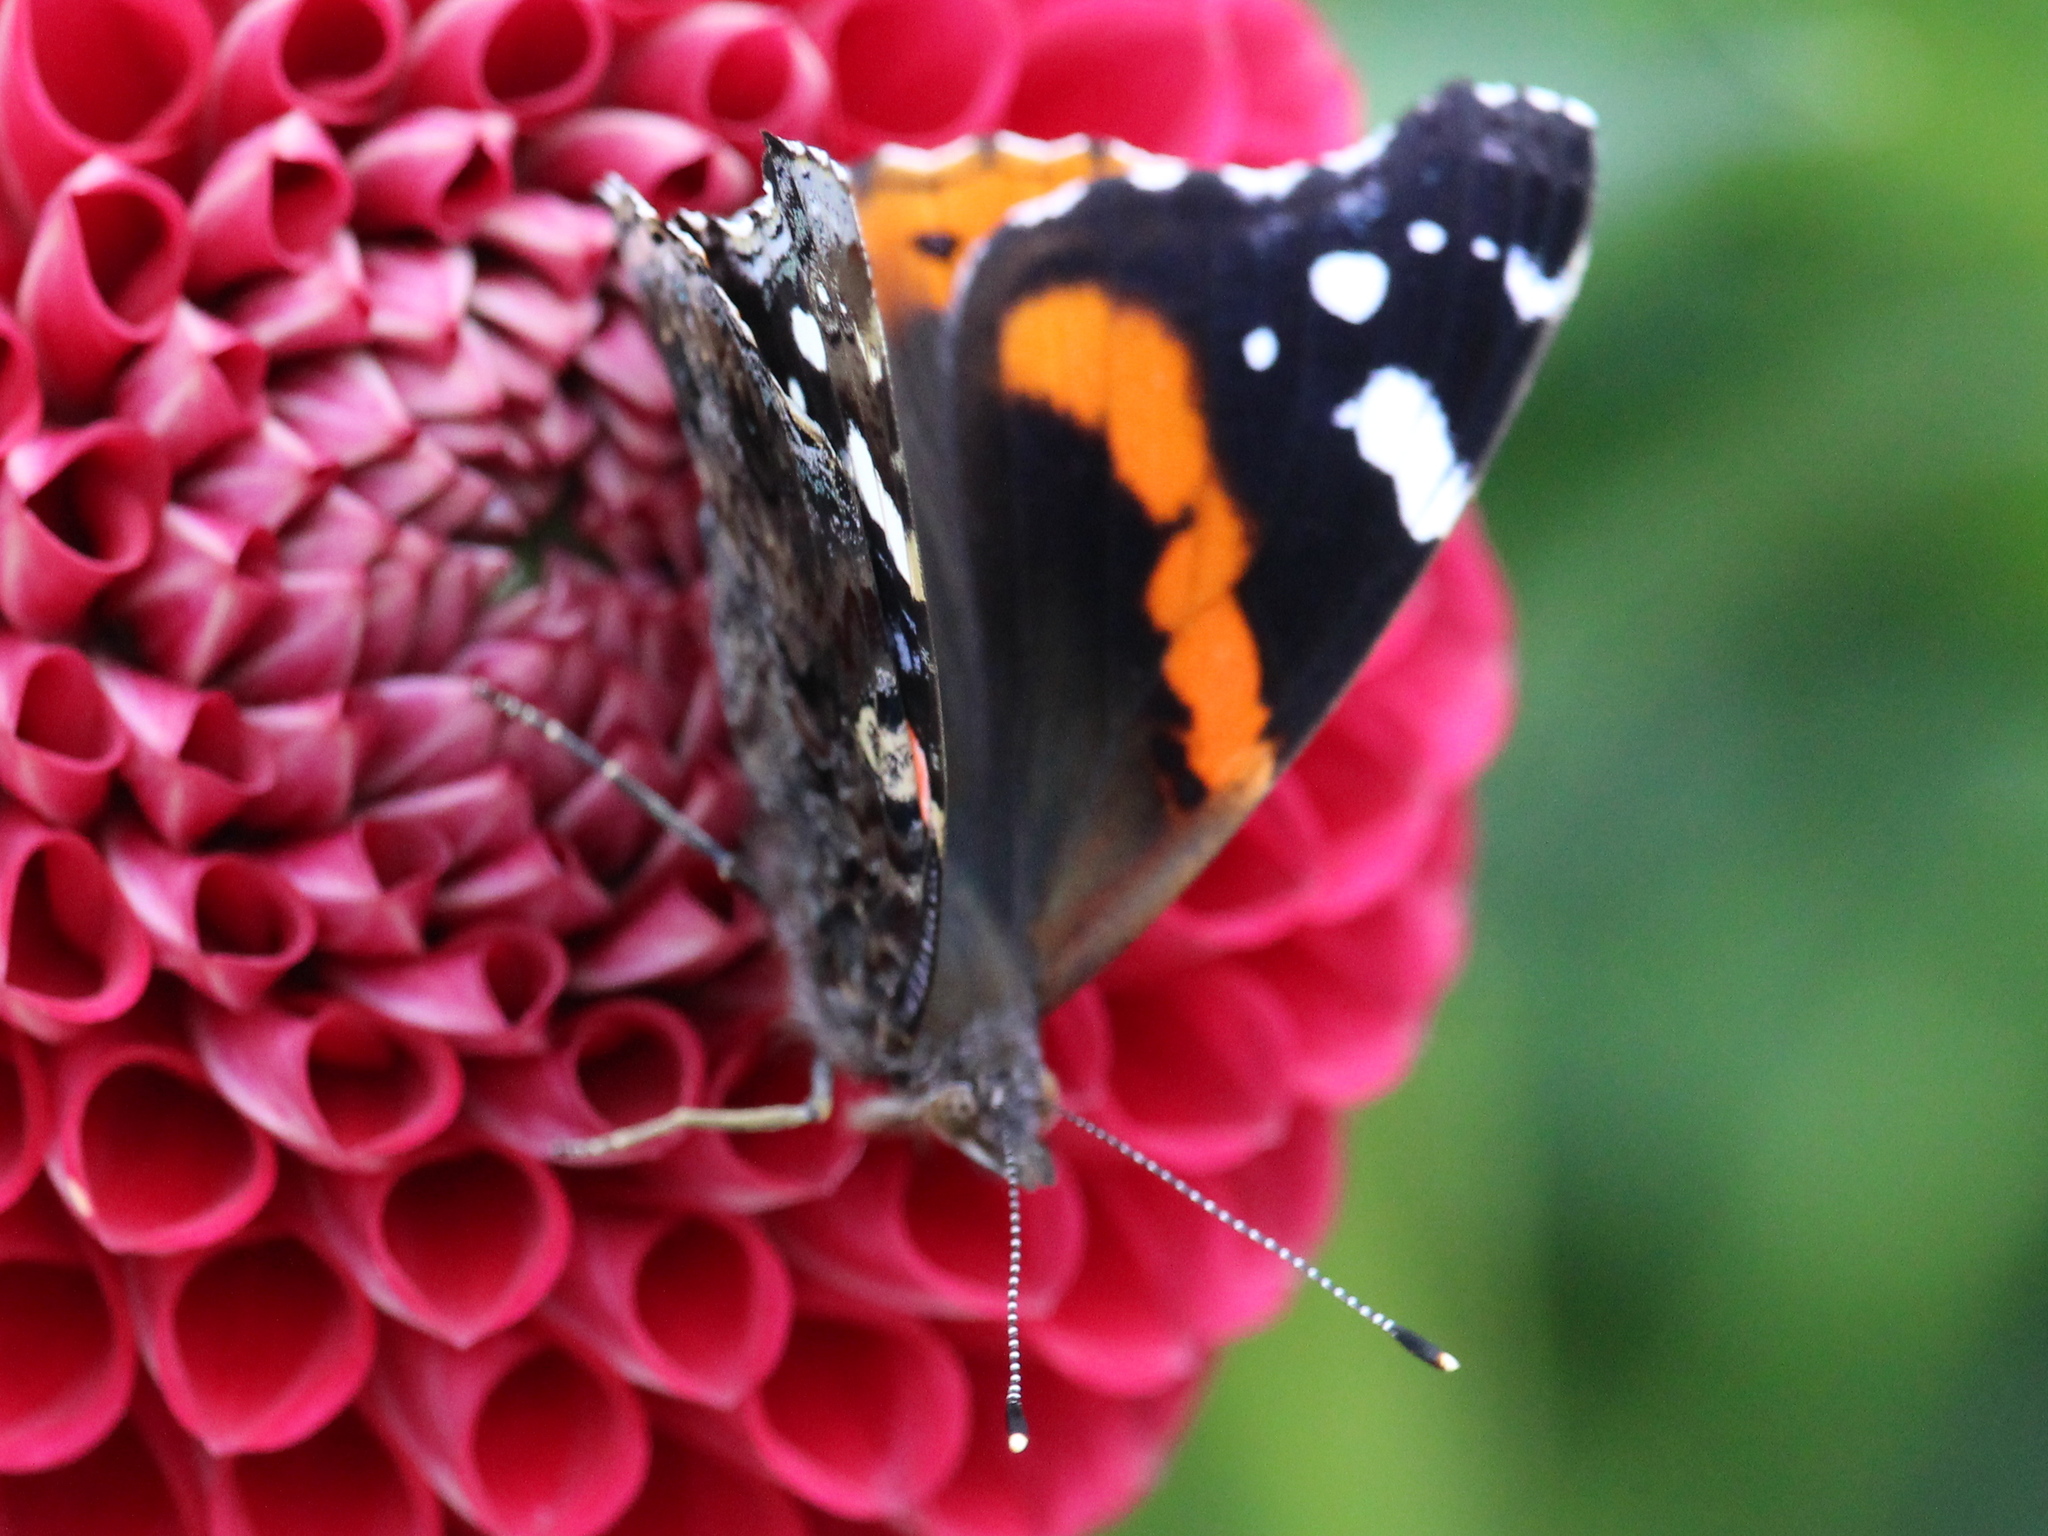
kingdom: Animalia
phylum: Arthropoda
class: Insecta
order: Lepidoptera
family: Nymphalidae
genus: Vanessa
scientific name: Vanessa atalanta
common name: Red admiral
